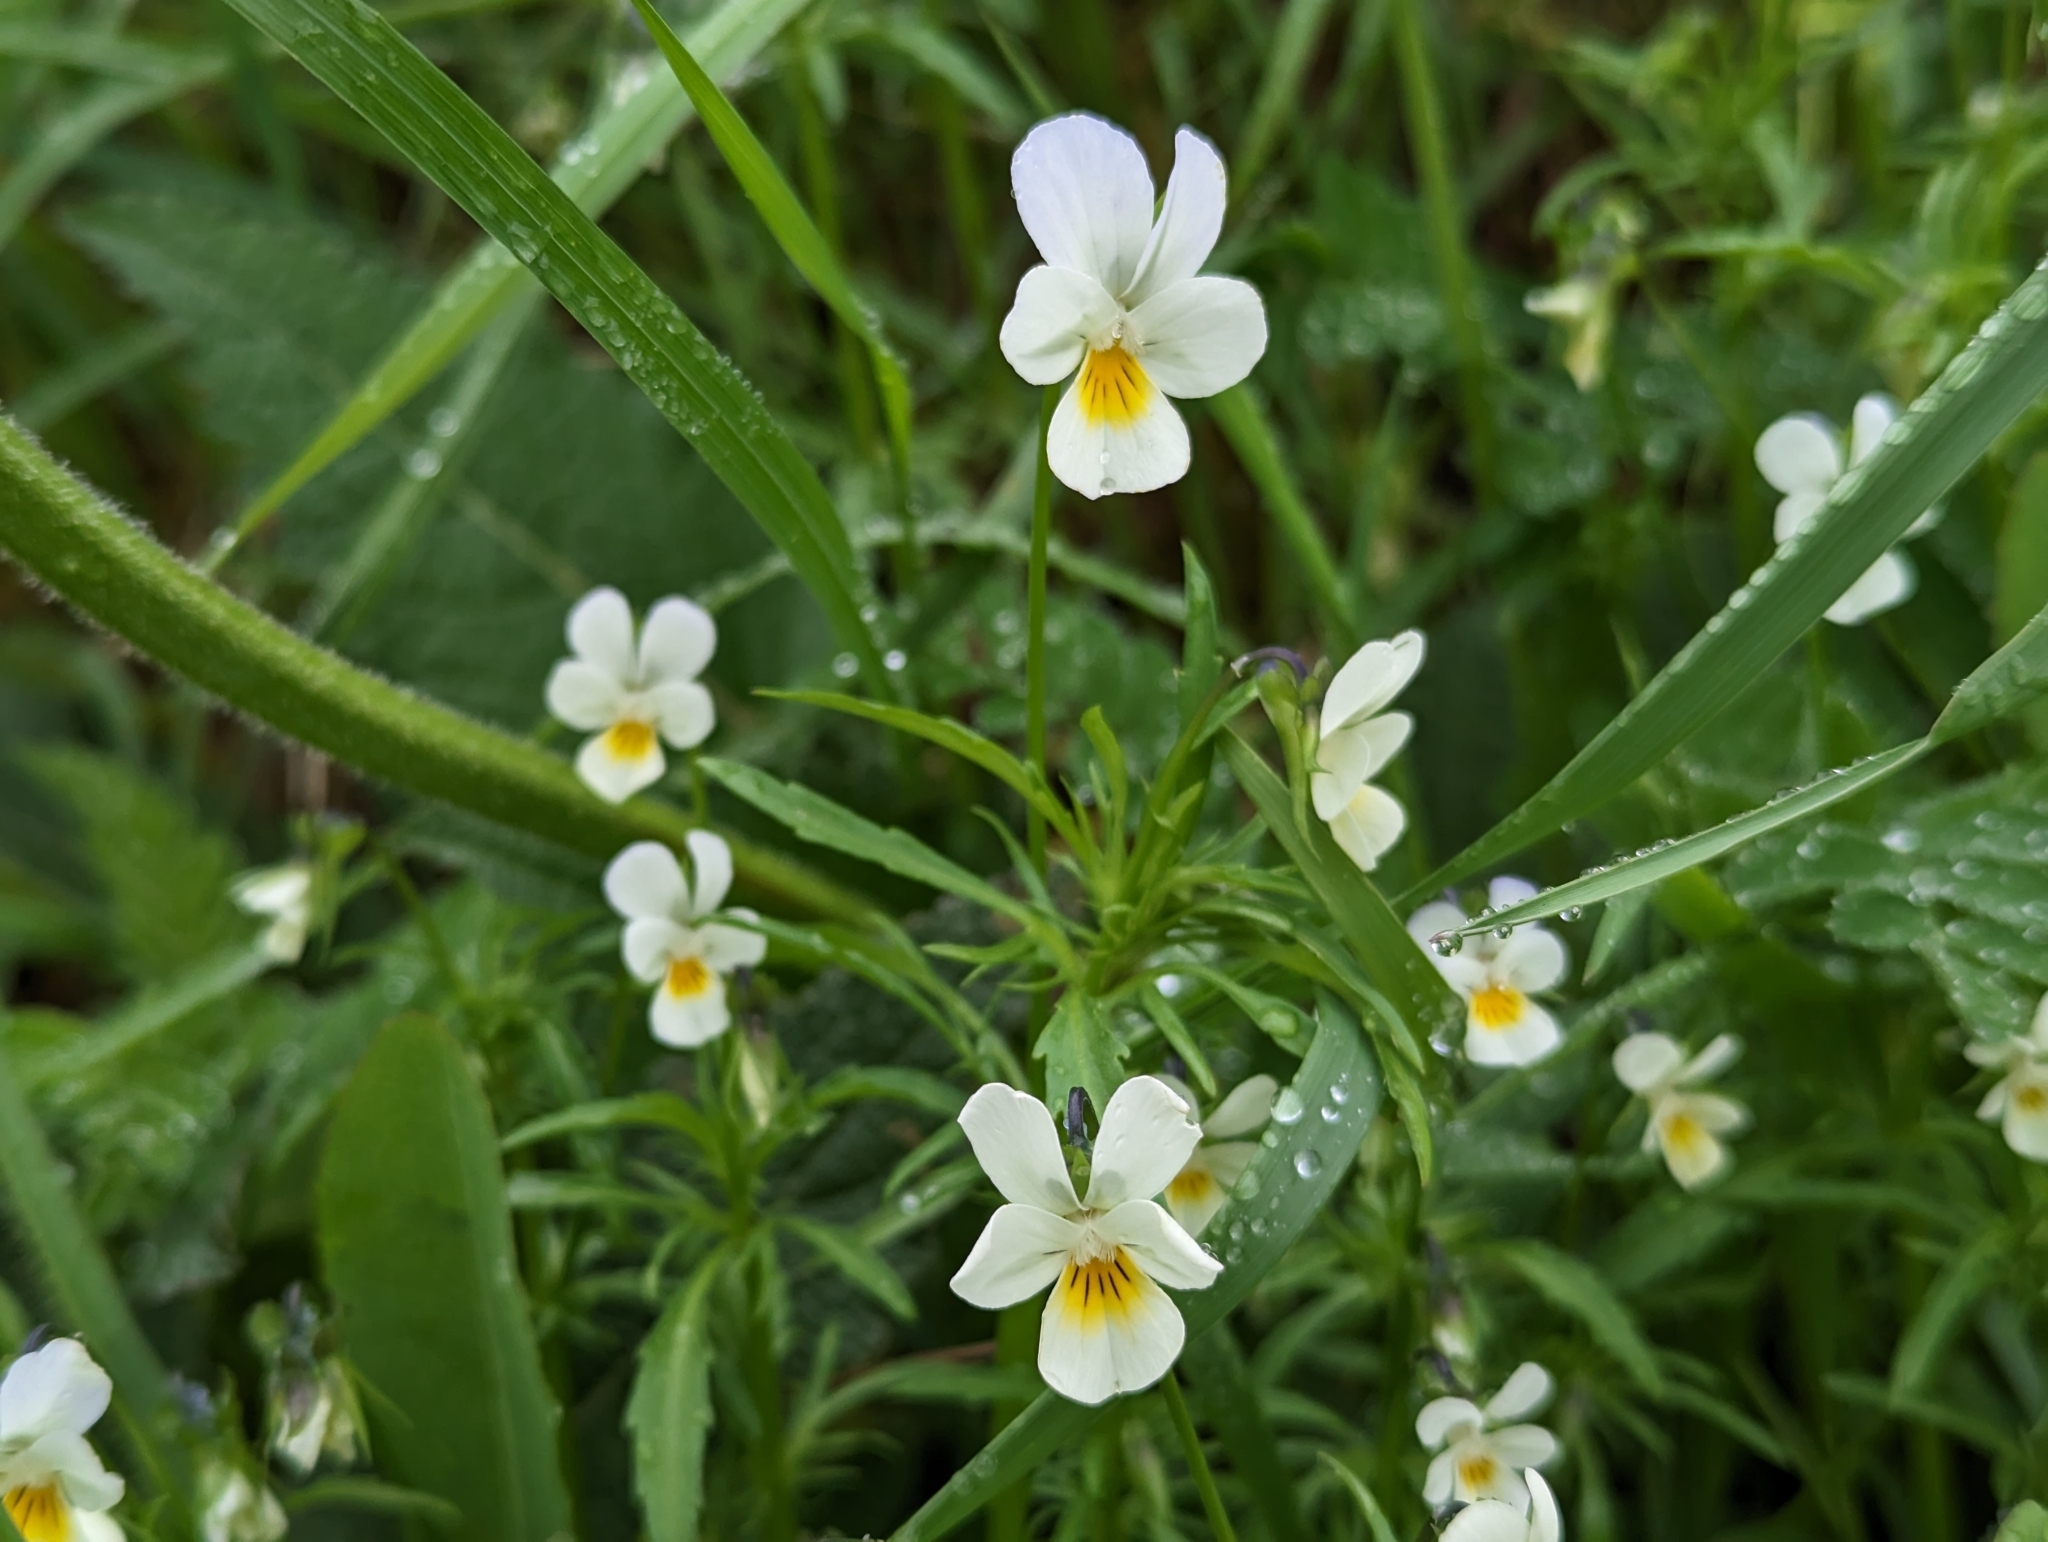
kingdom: Plantae
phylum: Tracheophyta
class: Magnoliopsida
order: Malpighiales
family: Violaceae
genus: Viola
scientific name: Viola arvensis
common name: Field pansy
